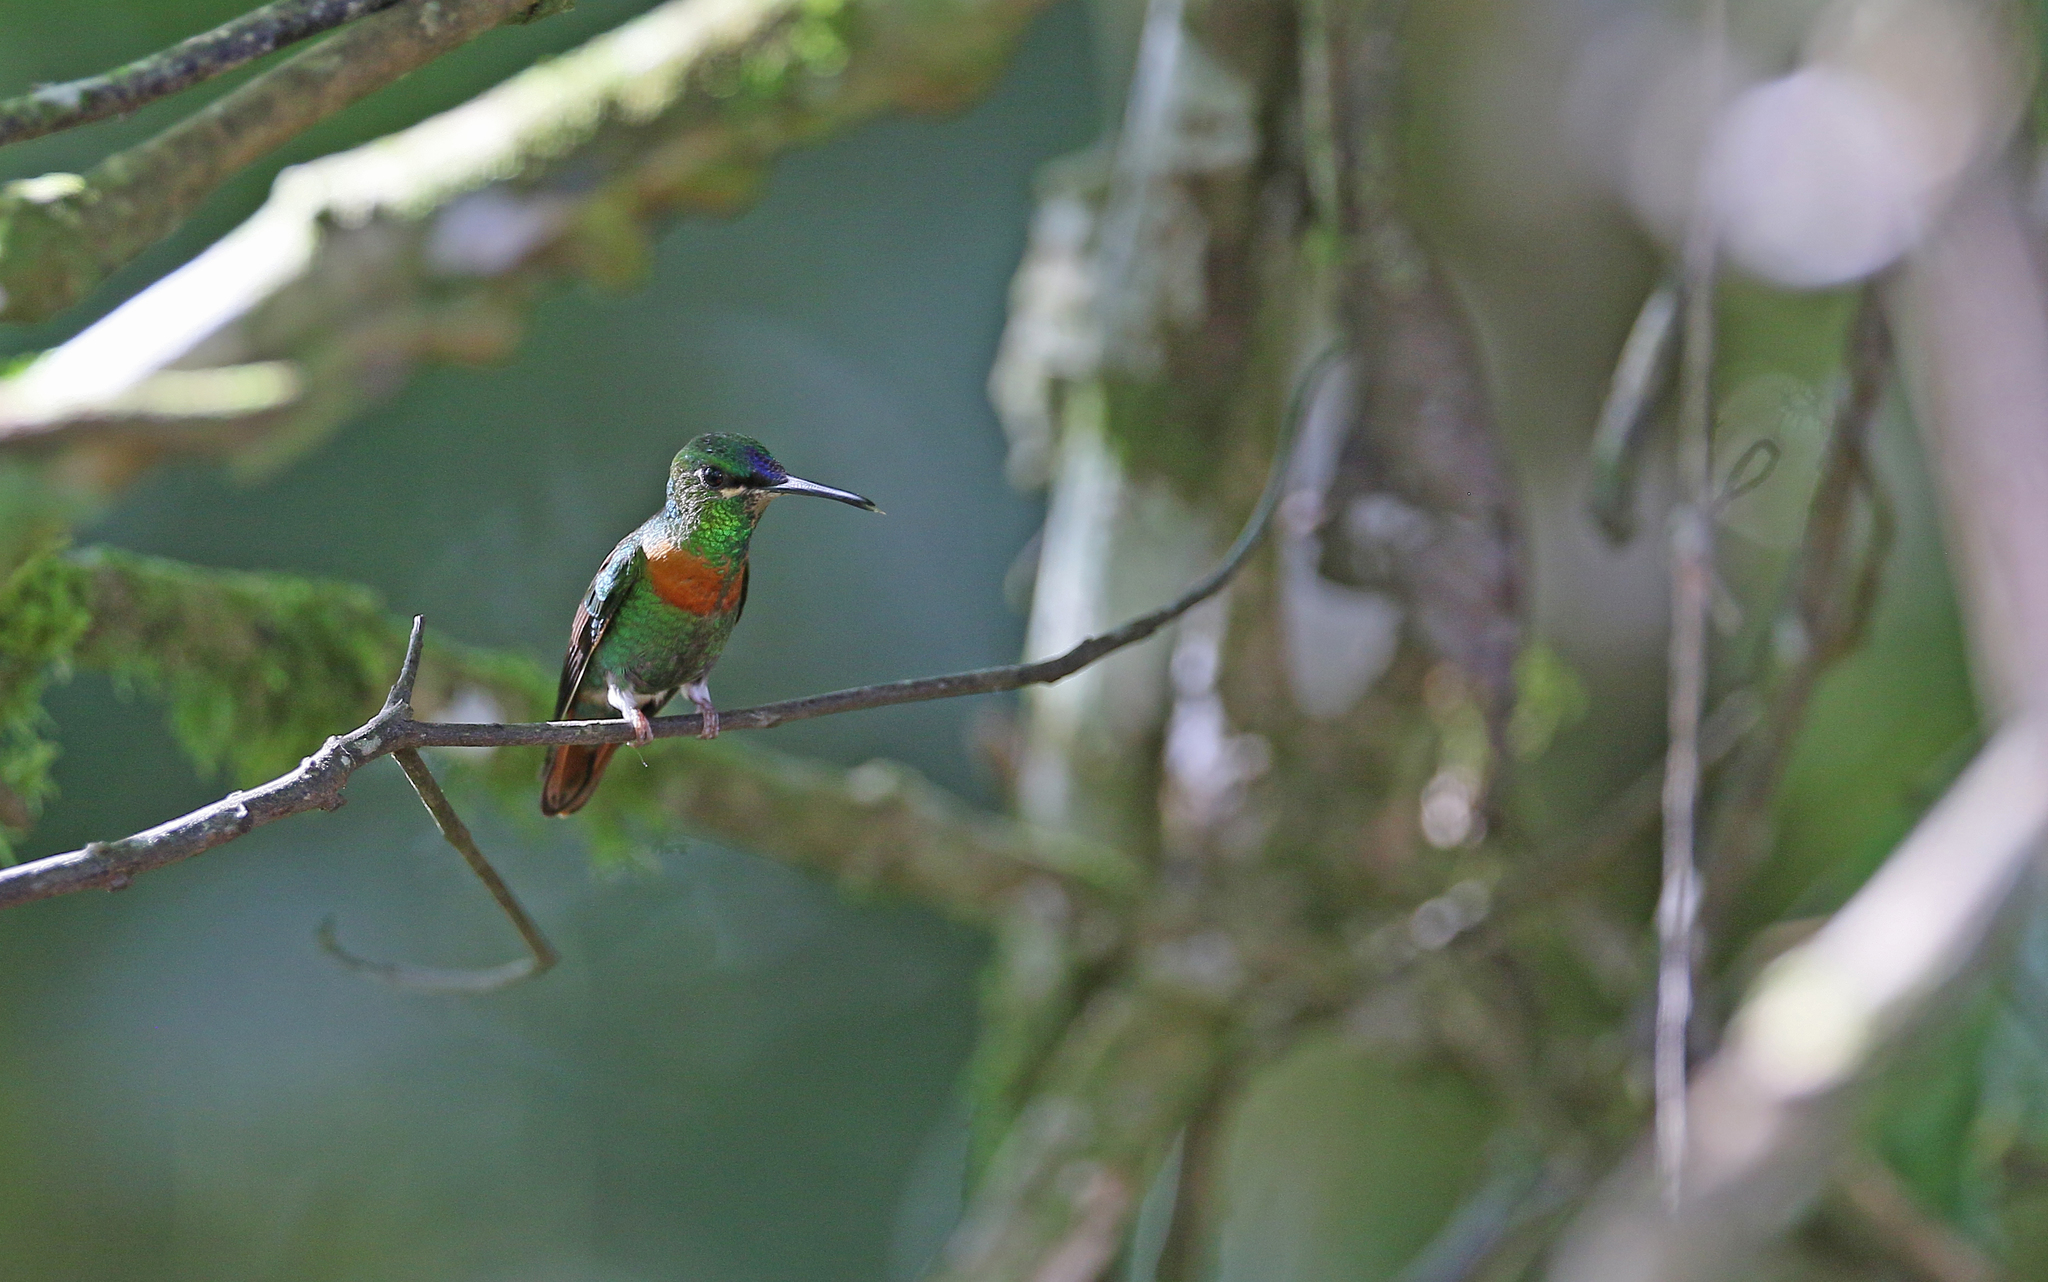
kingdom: Animalia
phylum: Chordata
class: Aves
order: Apodiformes
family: Trochilidae
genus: Heliodoxa
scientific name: Heliodoxa aurescens
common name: Gould's jewelfront
